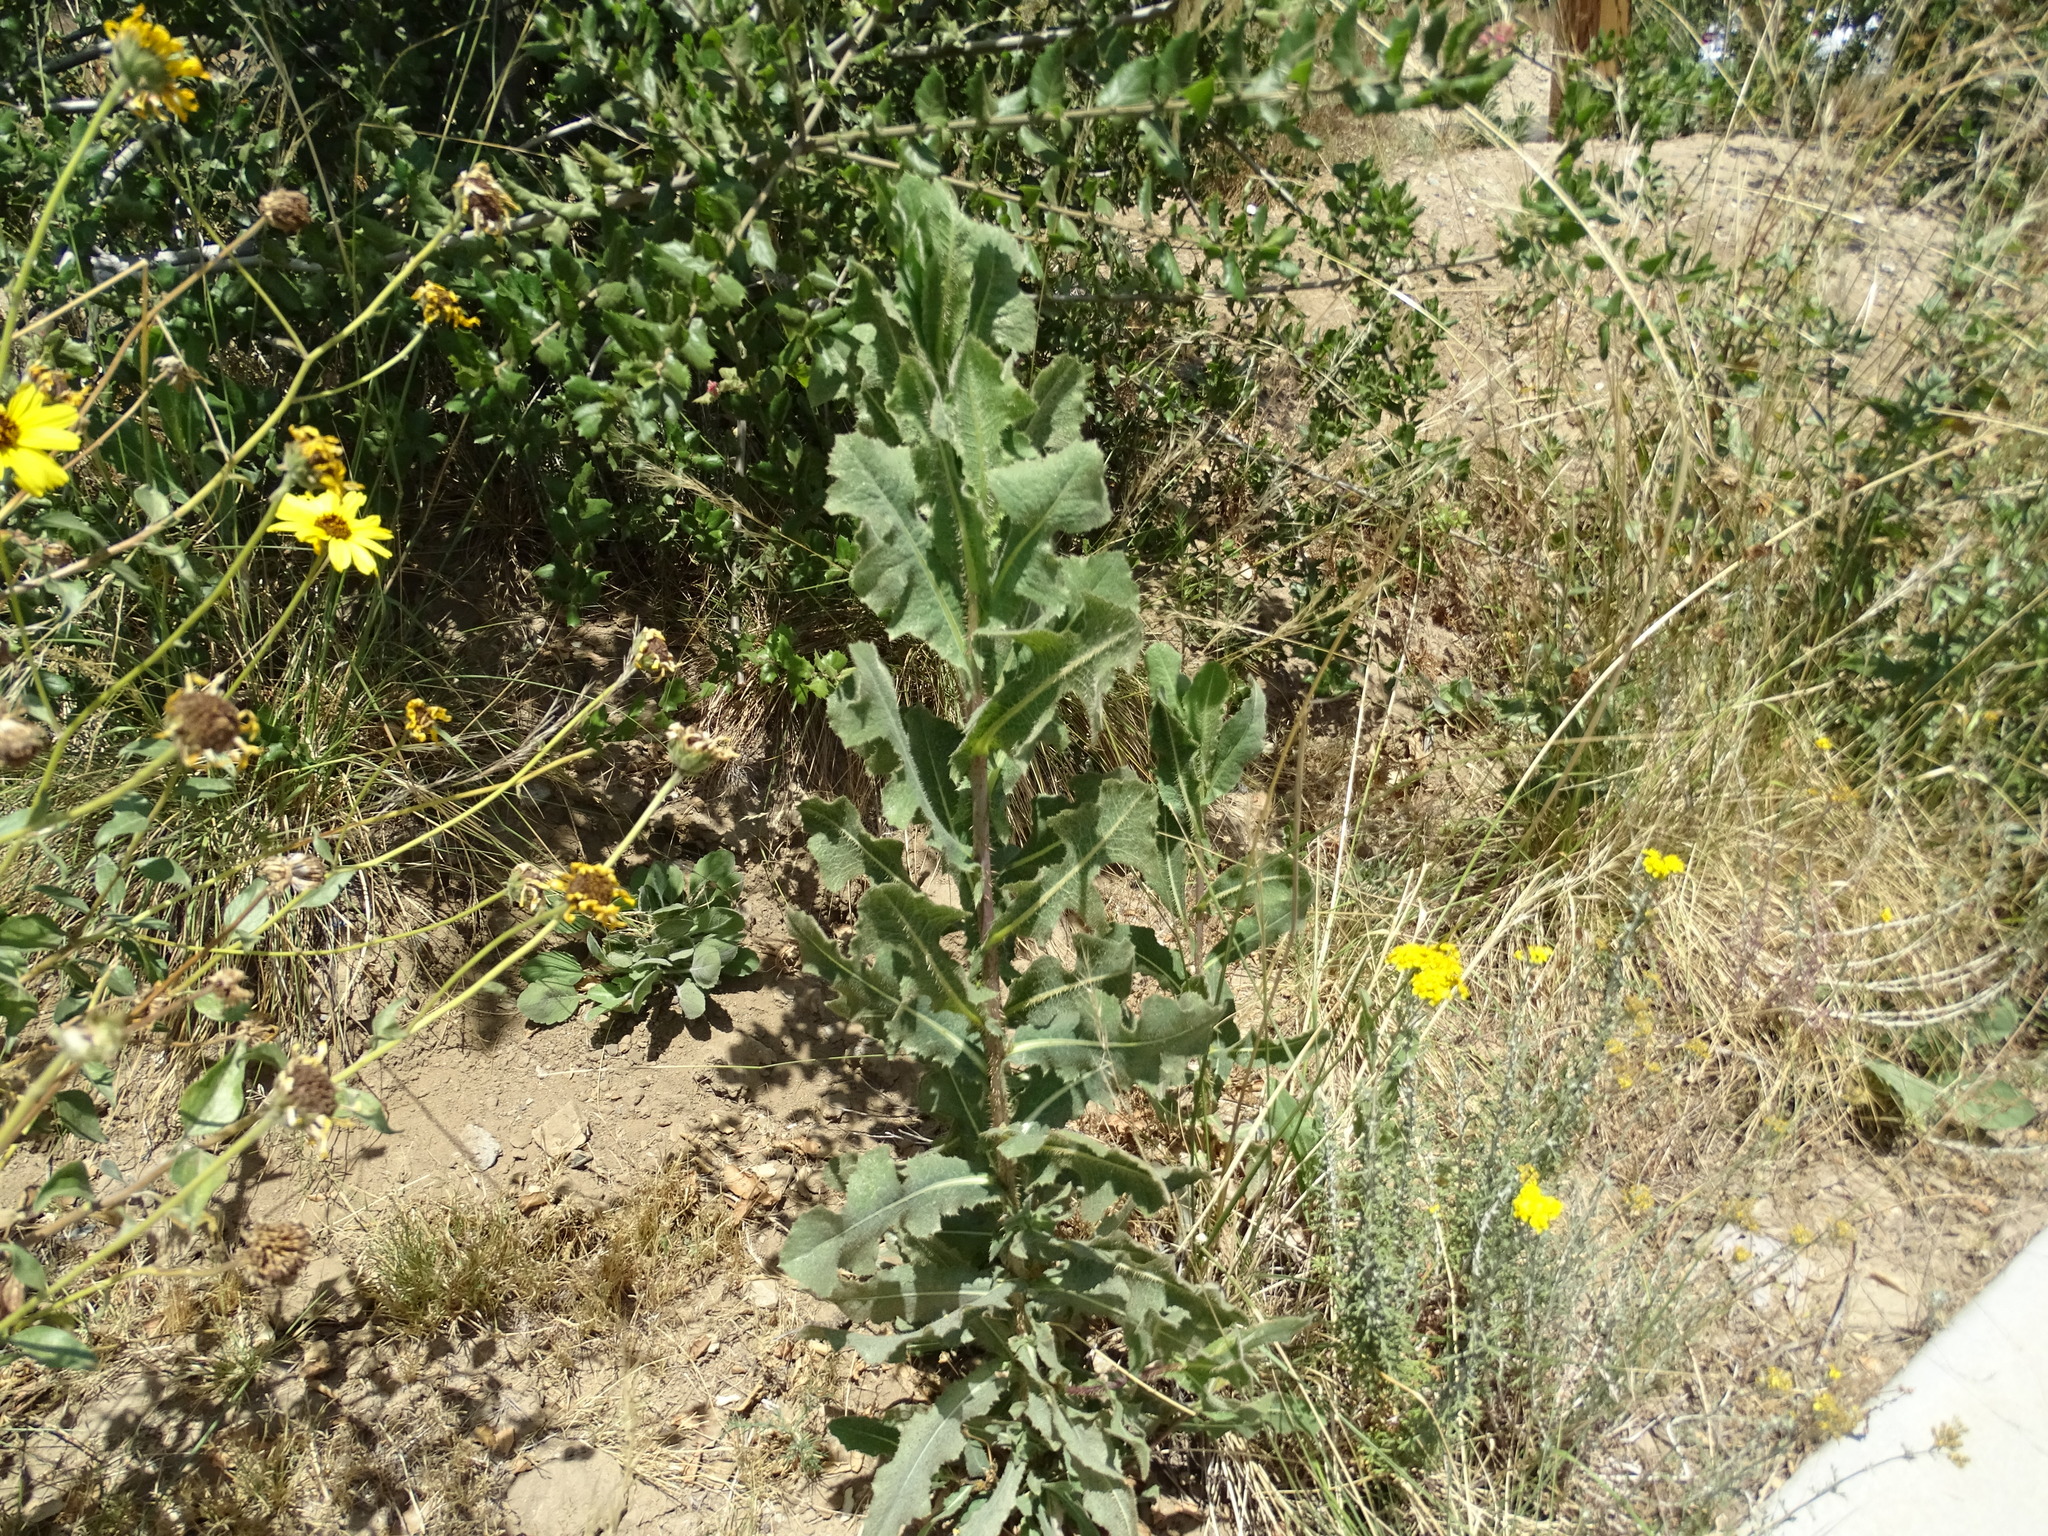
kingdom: Plantae
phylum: Tracheophyta
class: Magnoliopsida
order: Asterales
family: Asteraceae
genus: Lactuca
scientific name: Lactuca serriola
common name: Prickly lettuce
